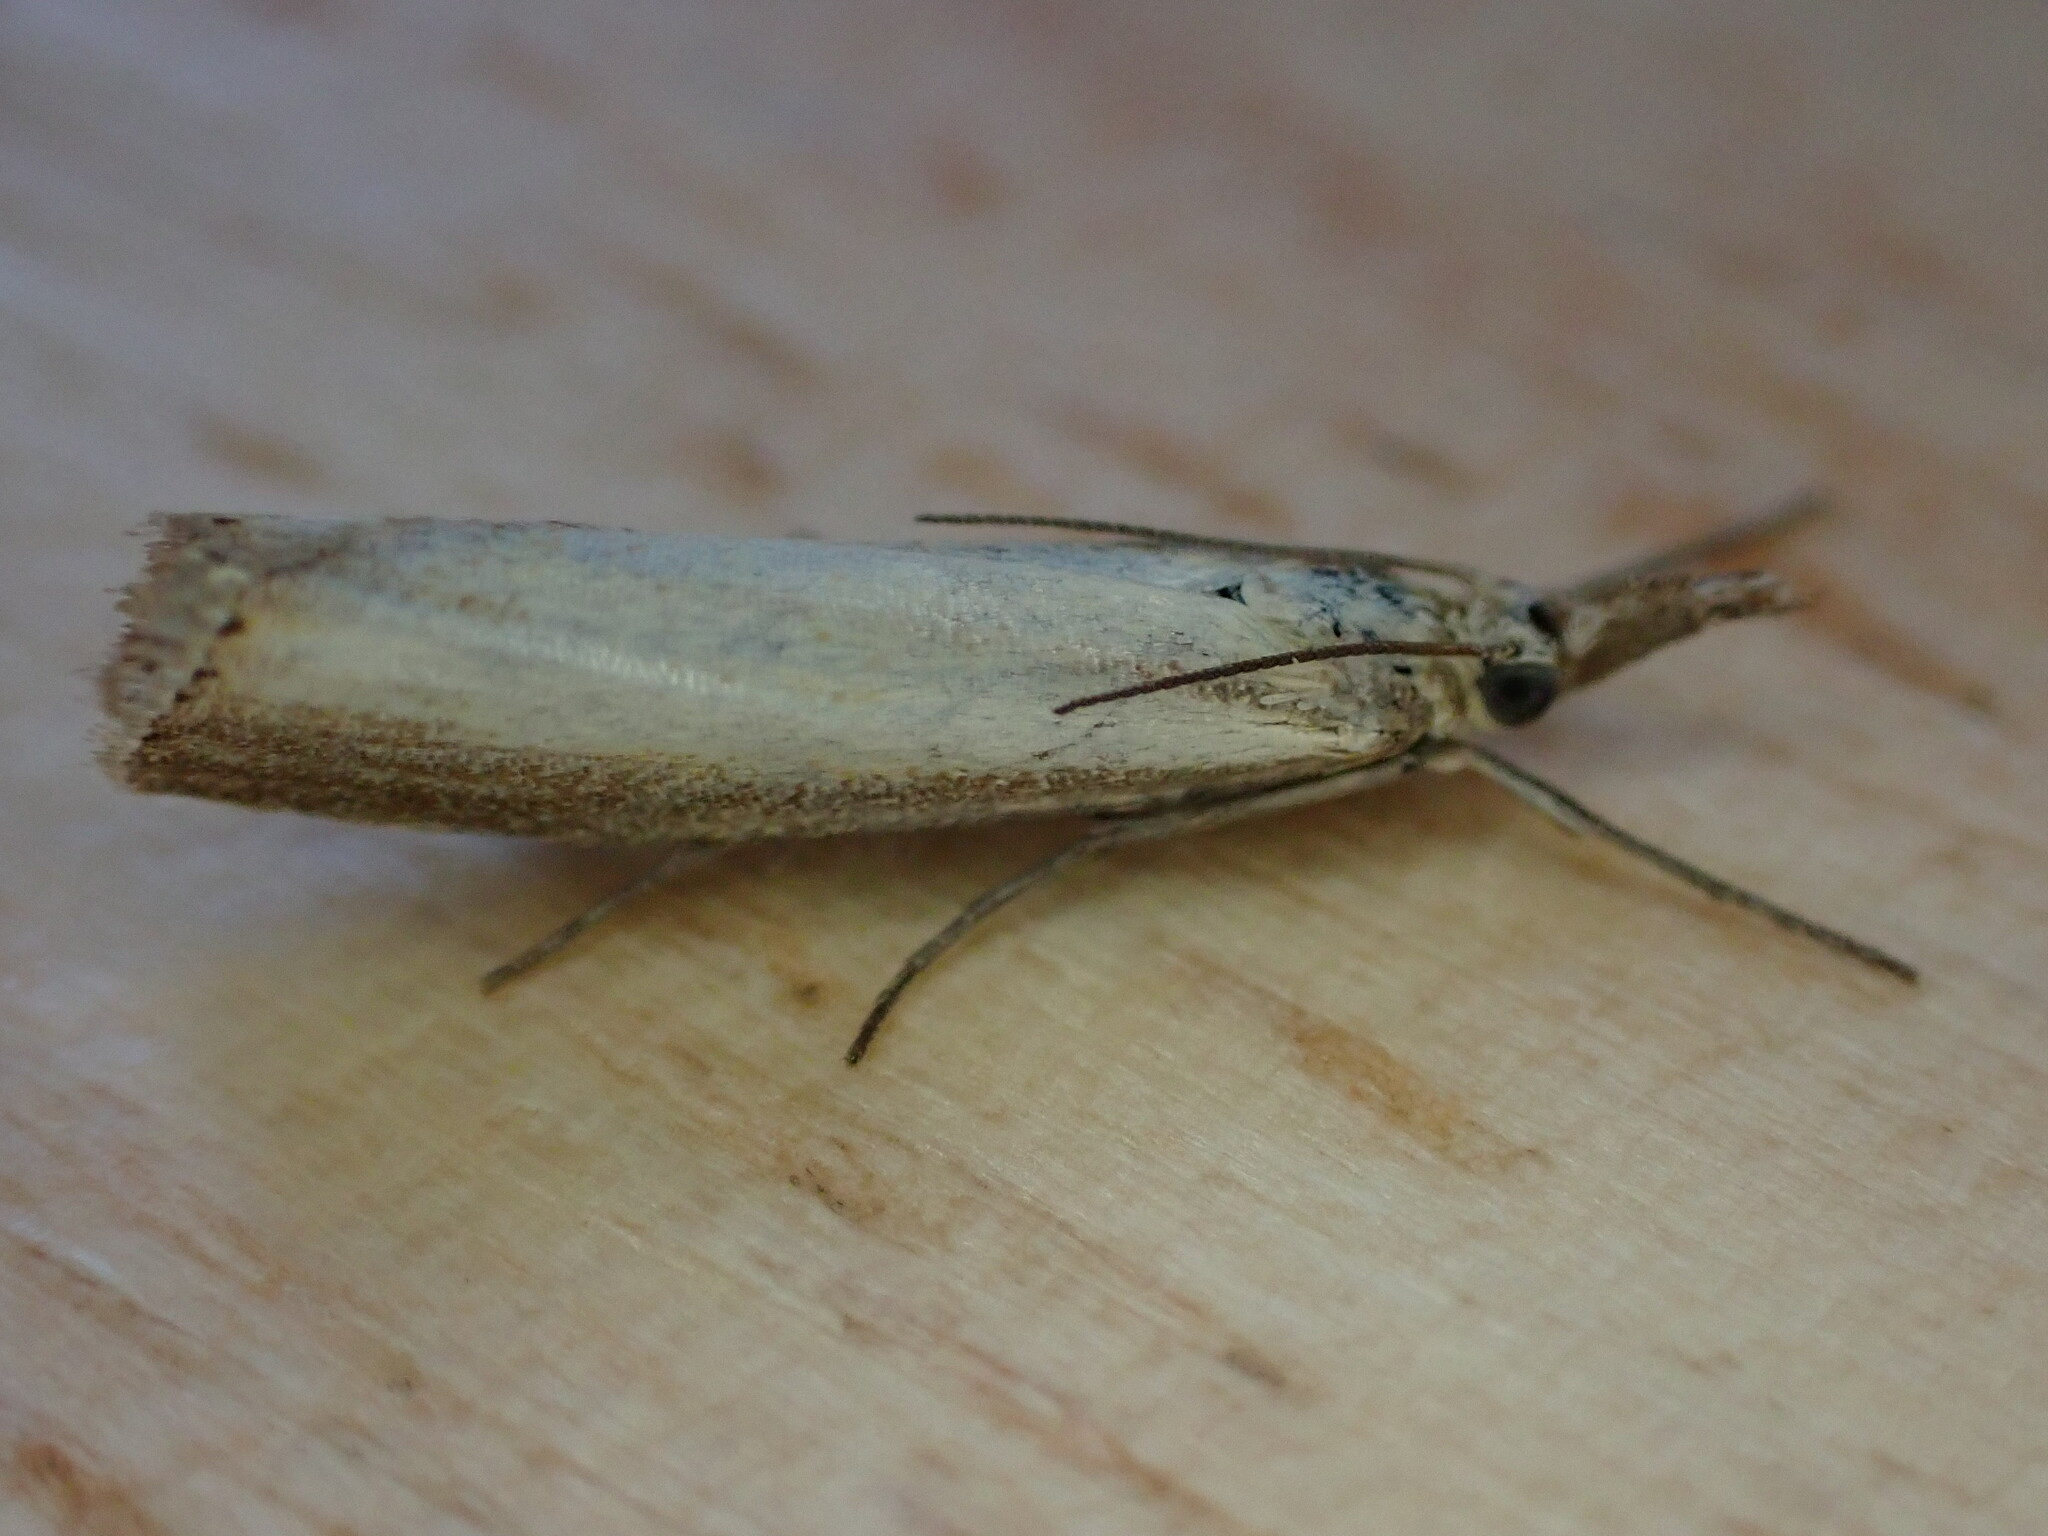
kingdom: Animalia
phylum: Arthropoda
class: Insecta
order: Lepidoptera
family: Crambidae
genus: Agriphila
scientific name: Agriphila straminella
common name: Straw grass-veneer
